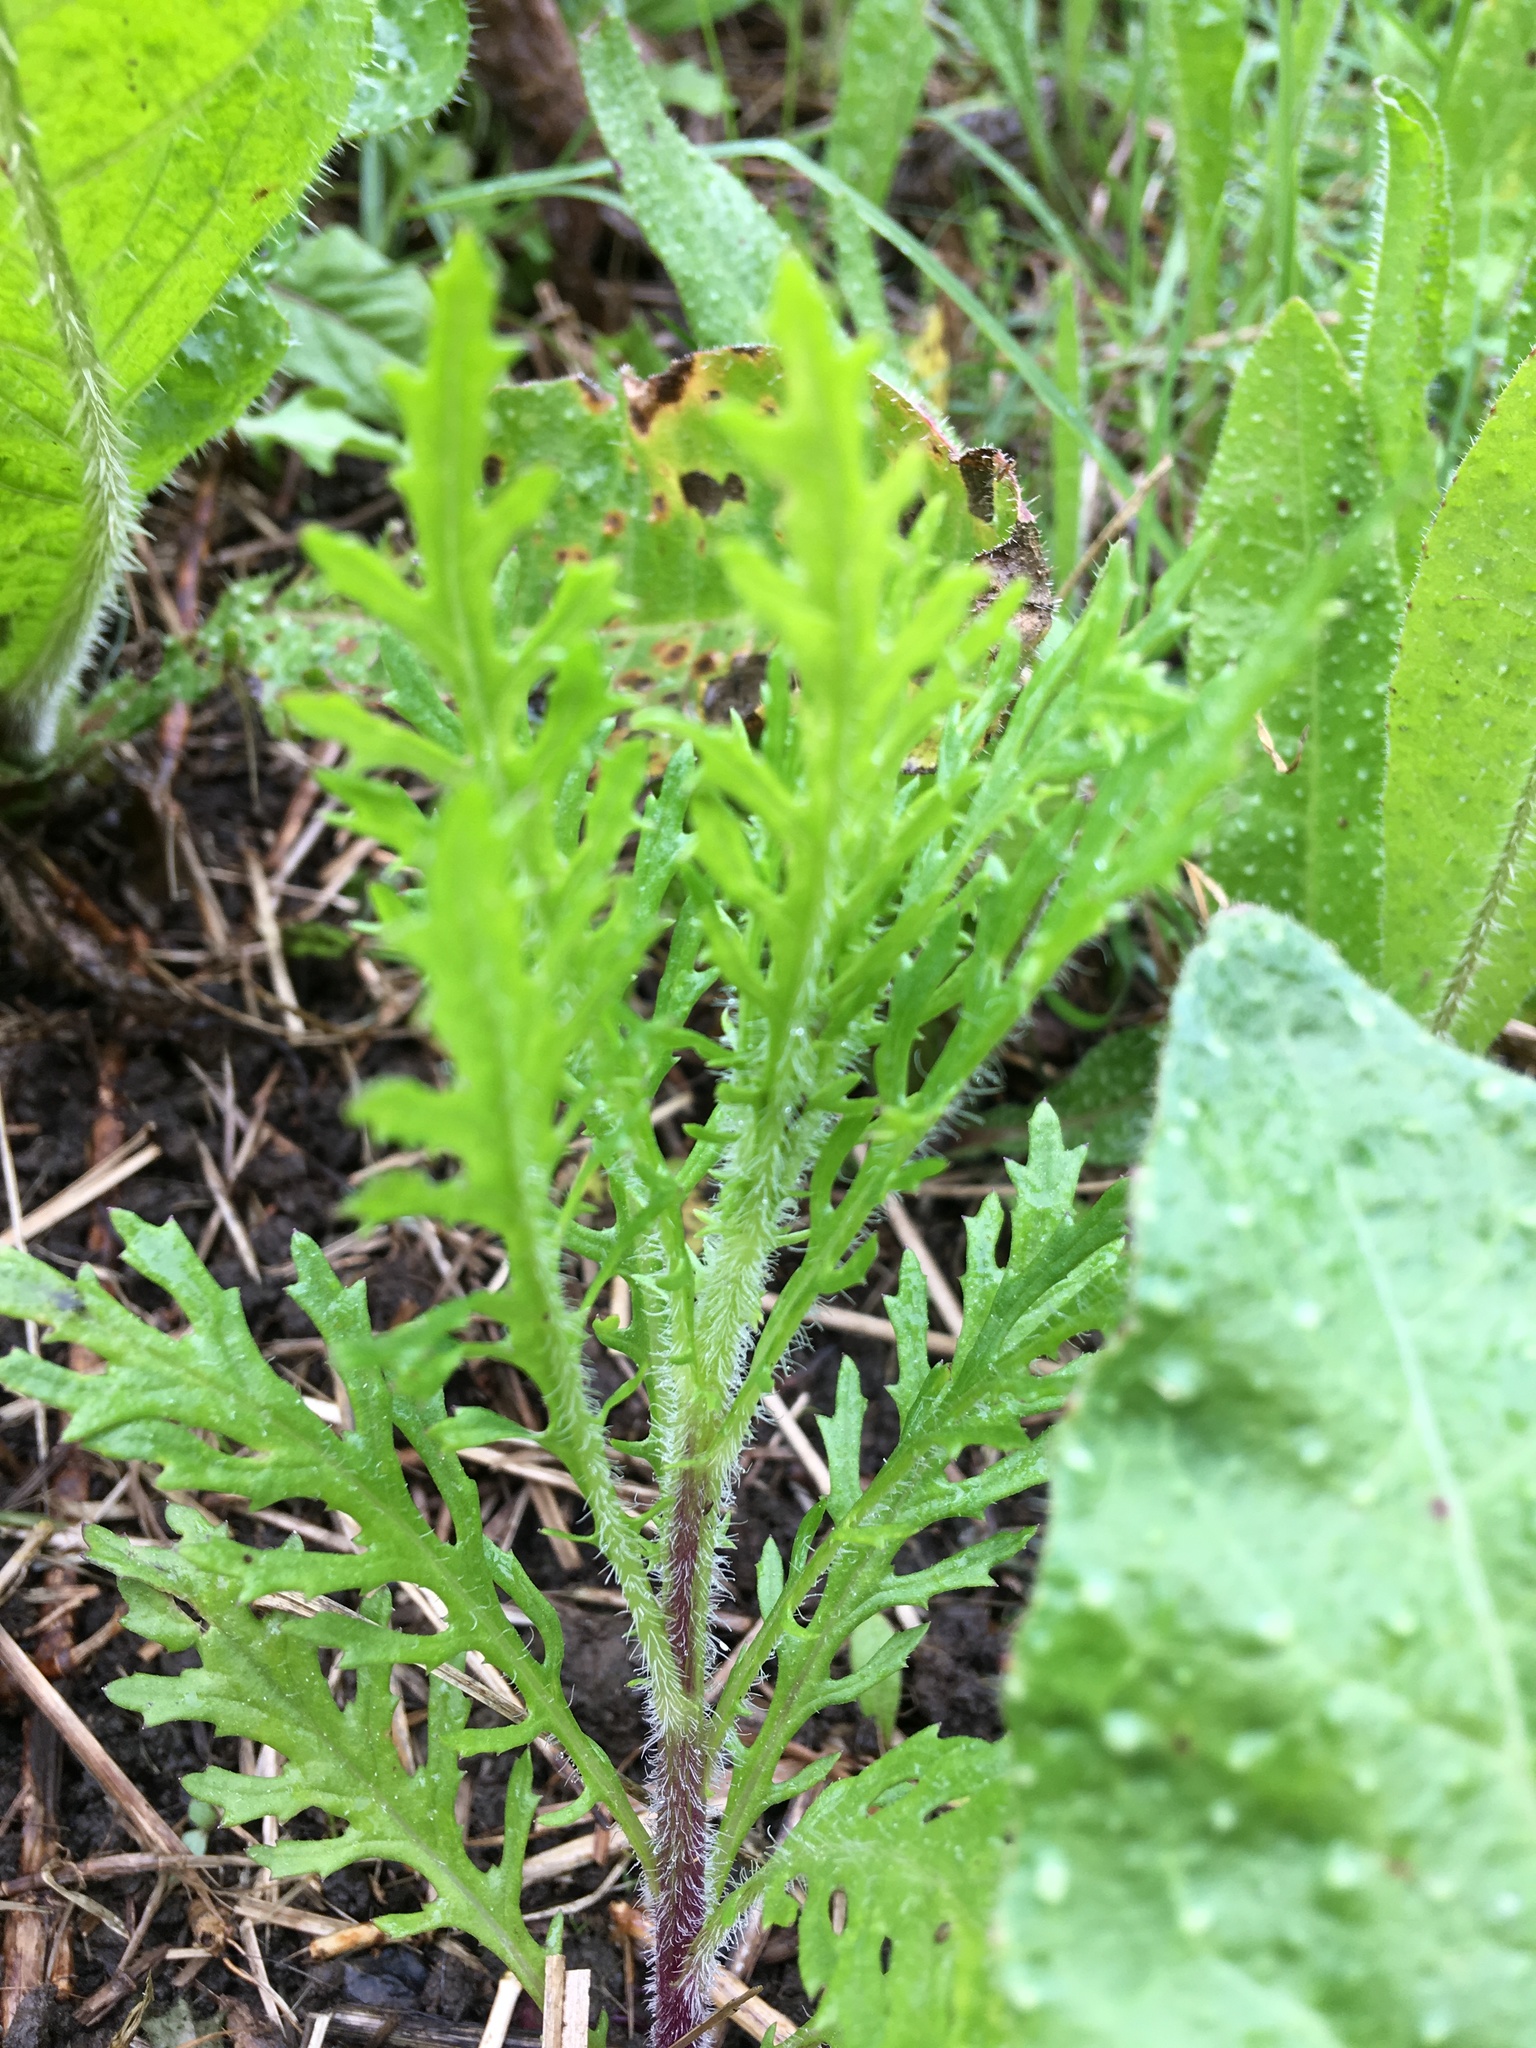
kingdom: Plantae
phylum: Tracheophyta
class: Magnoliopsida
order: Asterales
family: Asteraceae
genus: Senecio
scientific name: Senecio esleri
